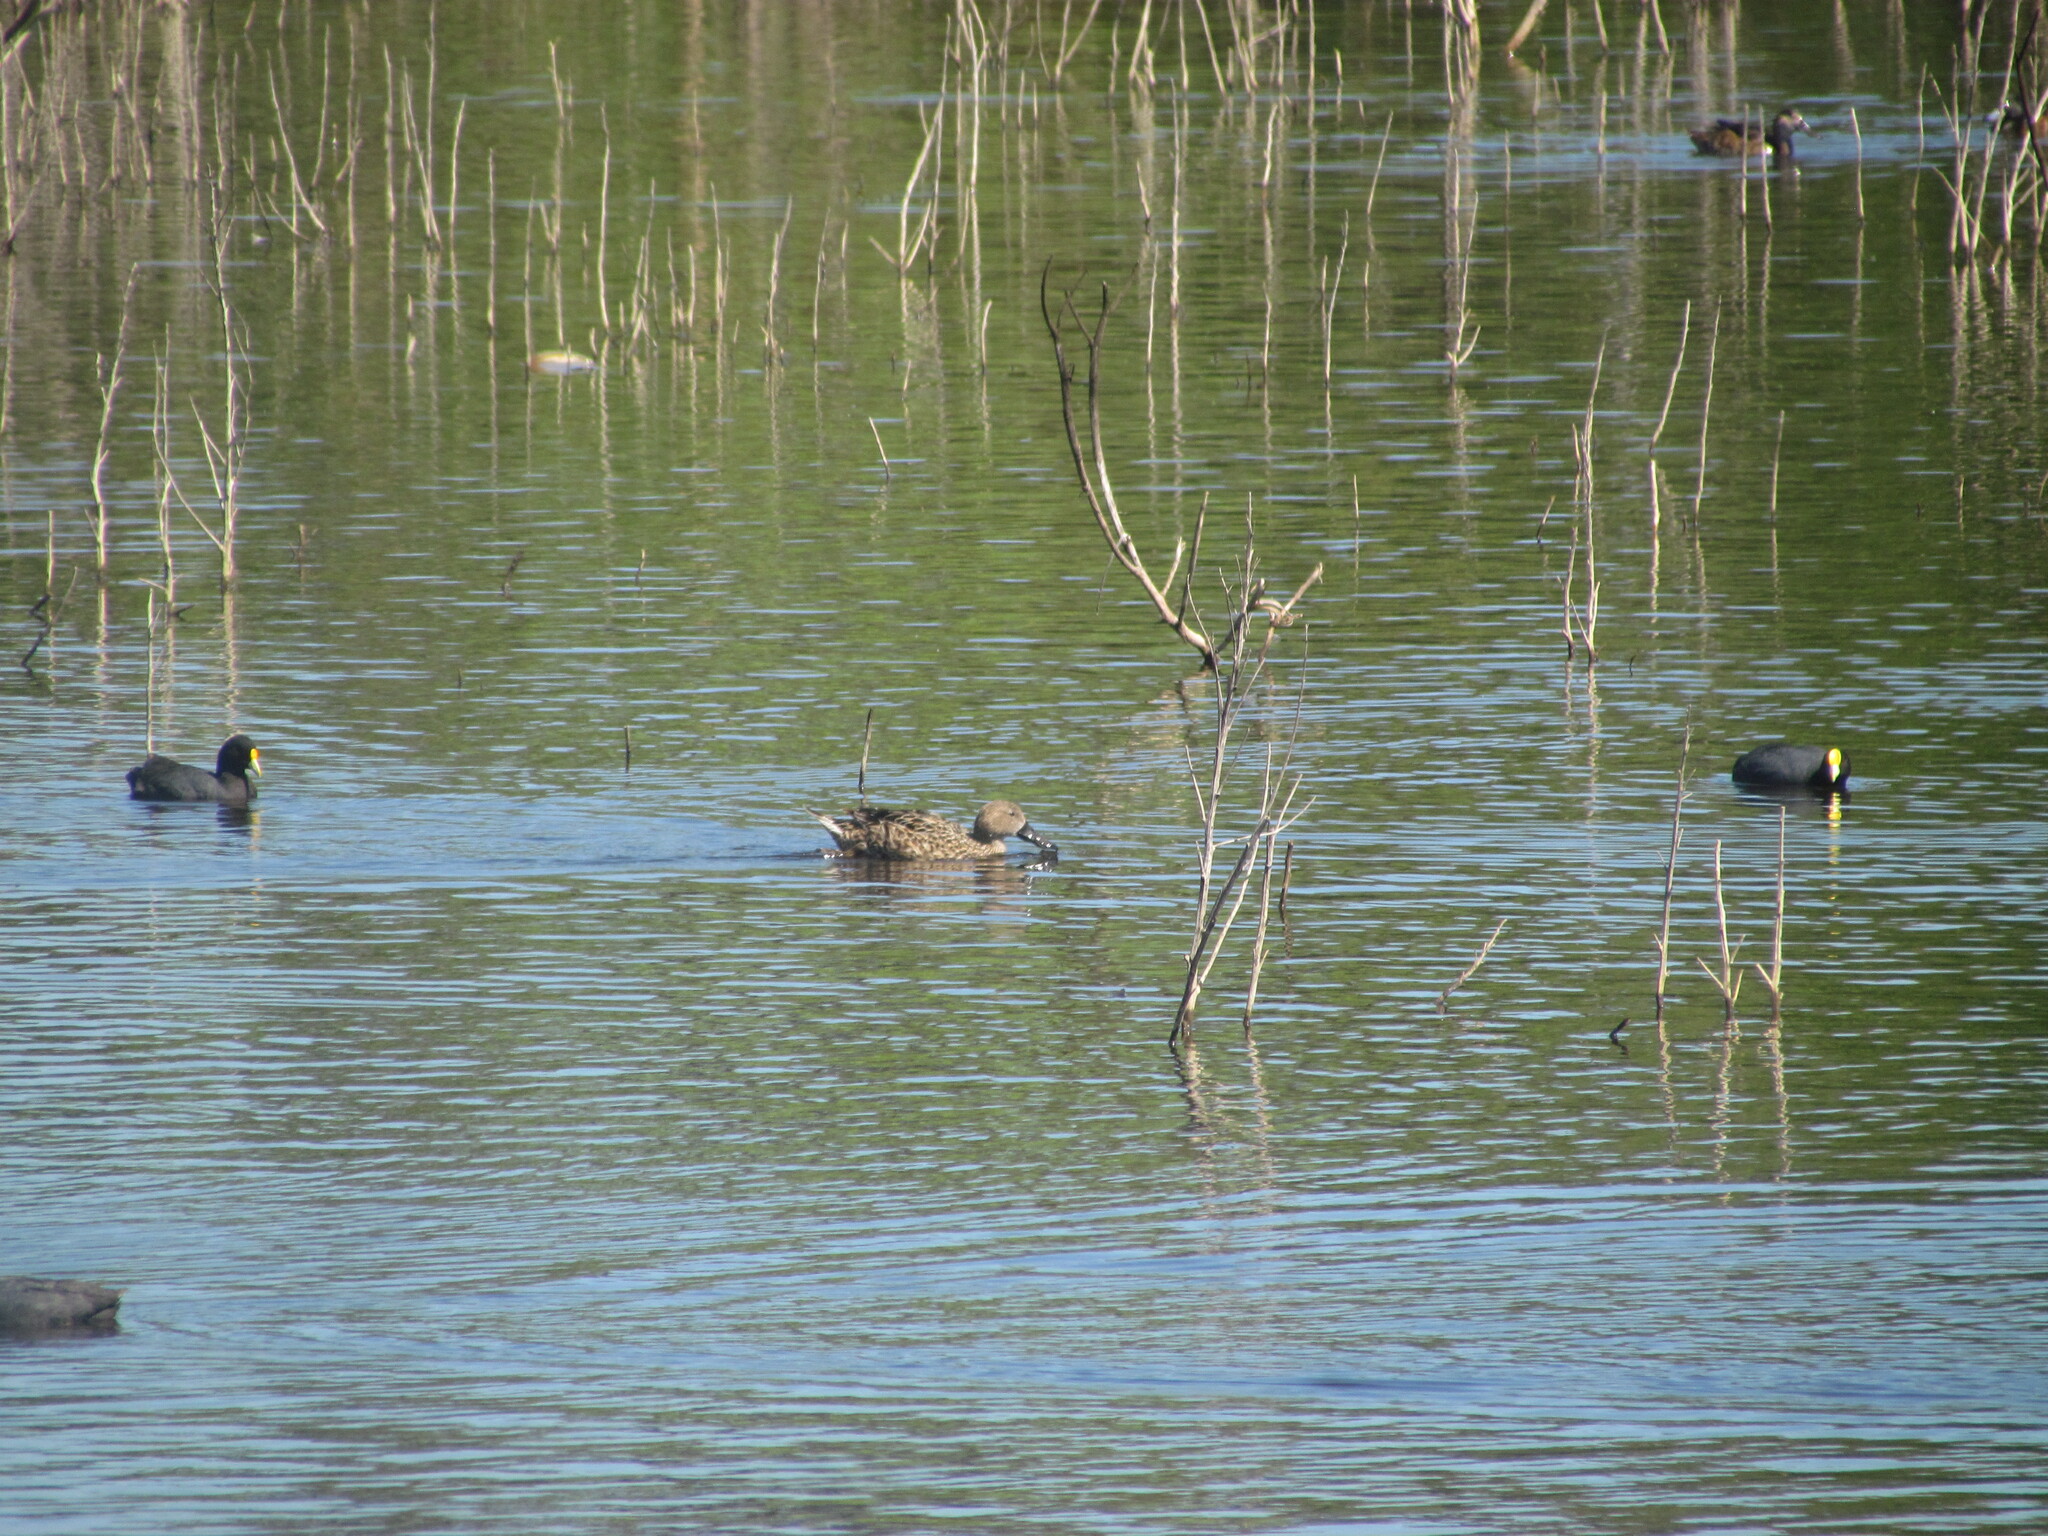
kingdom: Animalia
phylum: Chordata
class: Aves
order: Anseriformes
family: Anatidae
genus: Spatula
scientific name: Spatula platalea
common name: Red shoveler
